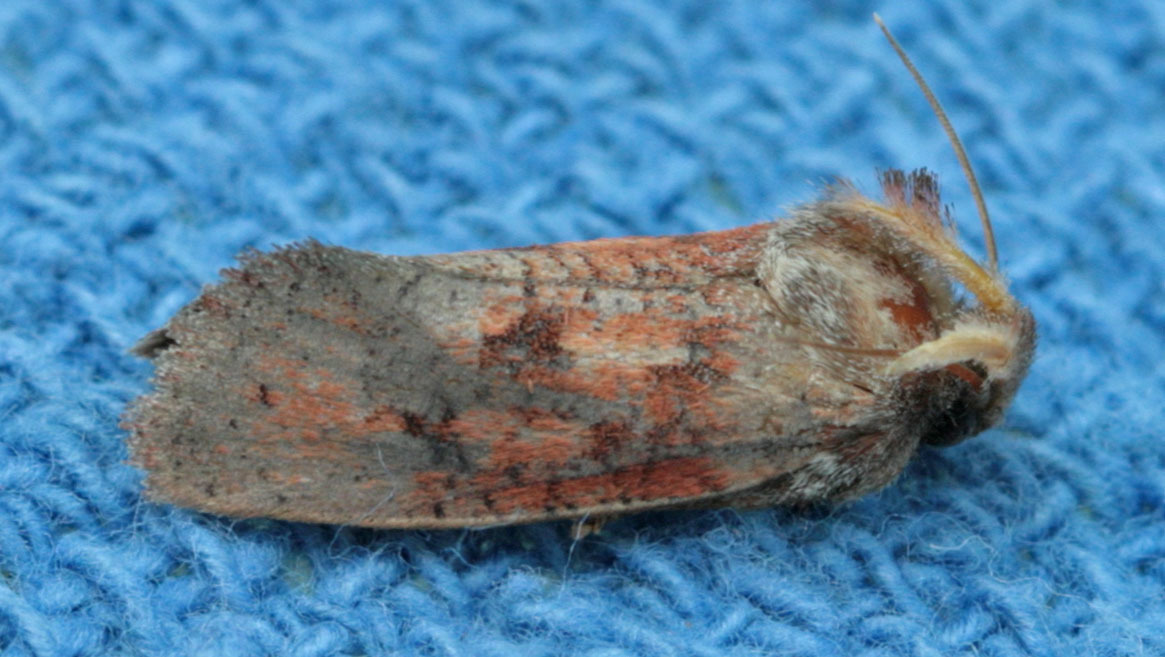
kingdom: Animalia
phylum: Arthropoda
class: Insecta
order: Lepidoptera
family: Tineidae
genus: Acrolophus
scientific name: Acrolophus plumifrontella
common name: Eastern grass tubeworm moth
